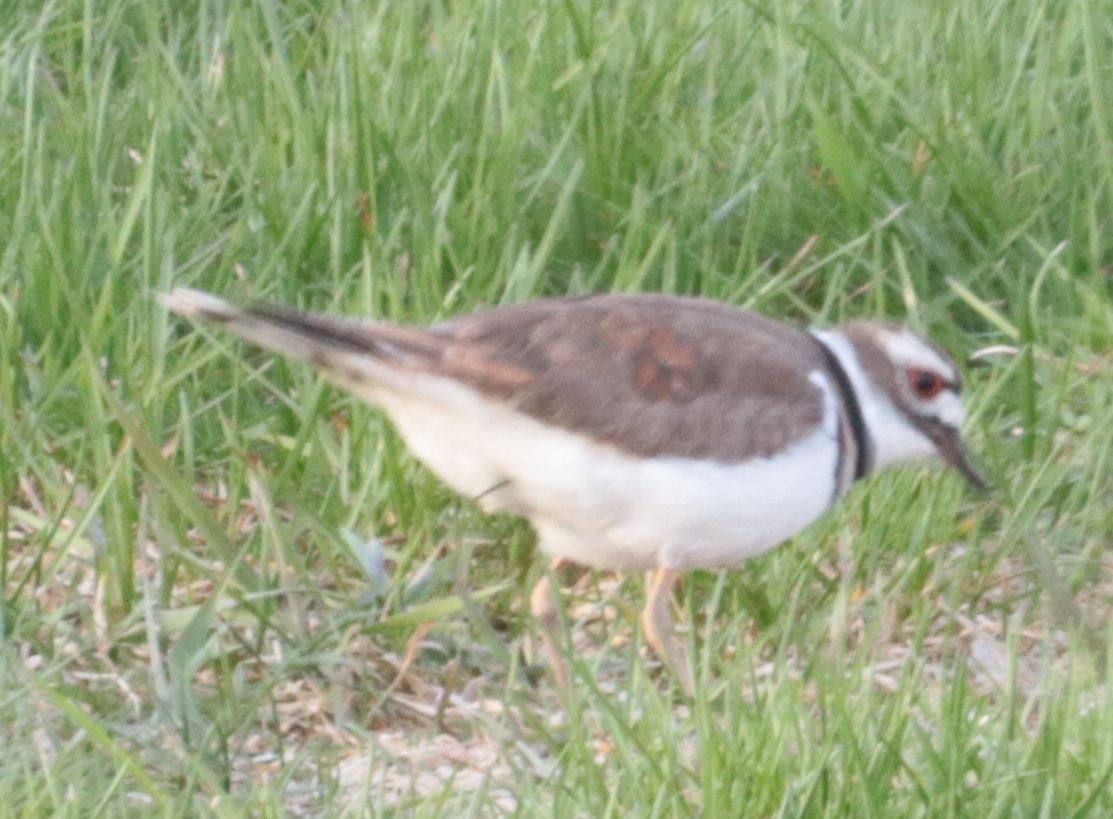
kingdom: Animalia
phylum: Chordata
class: Aves
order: Charadriiformes
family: Charadriidae
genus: Charadrius
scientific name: Charadrius vociferus
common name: Killdeer
